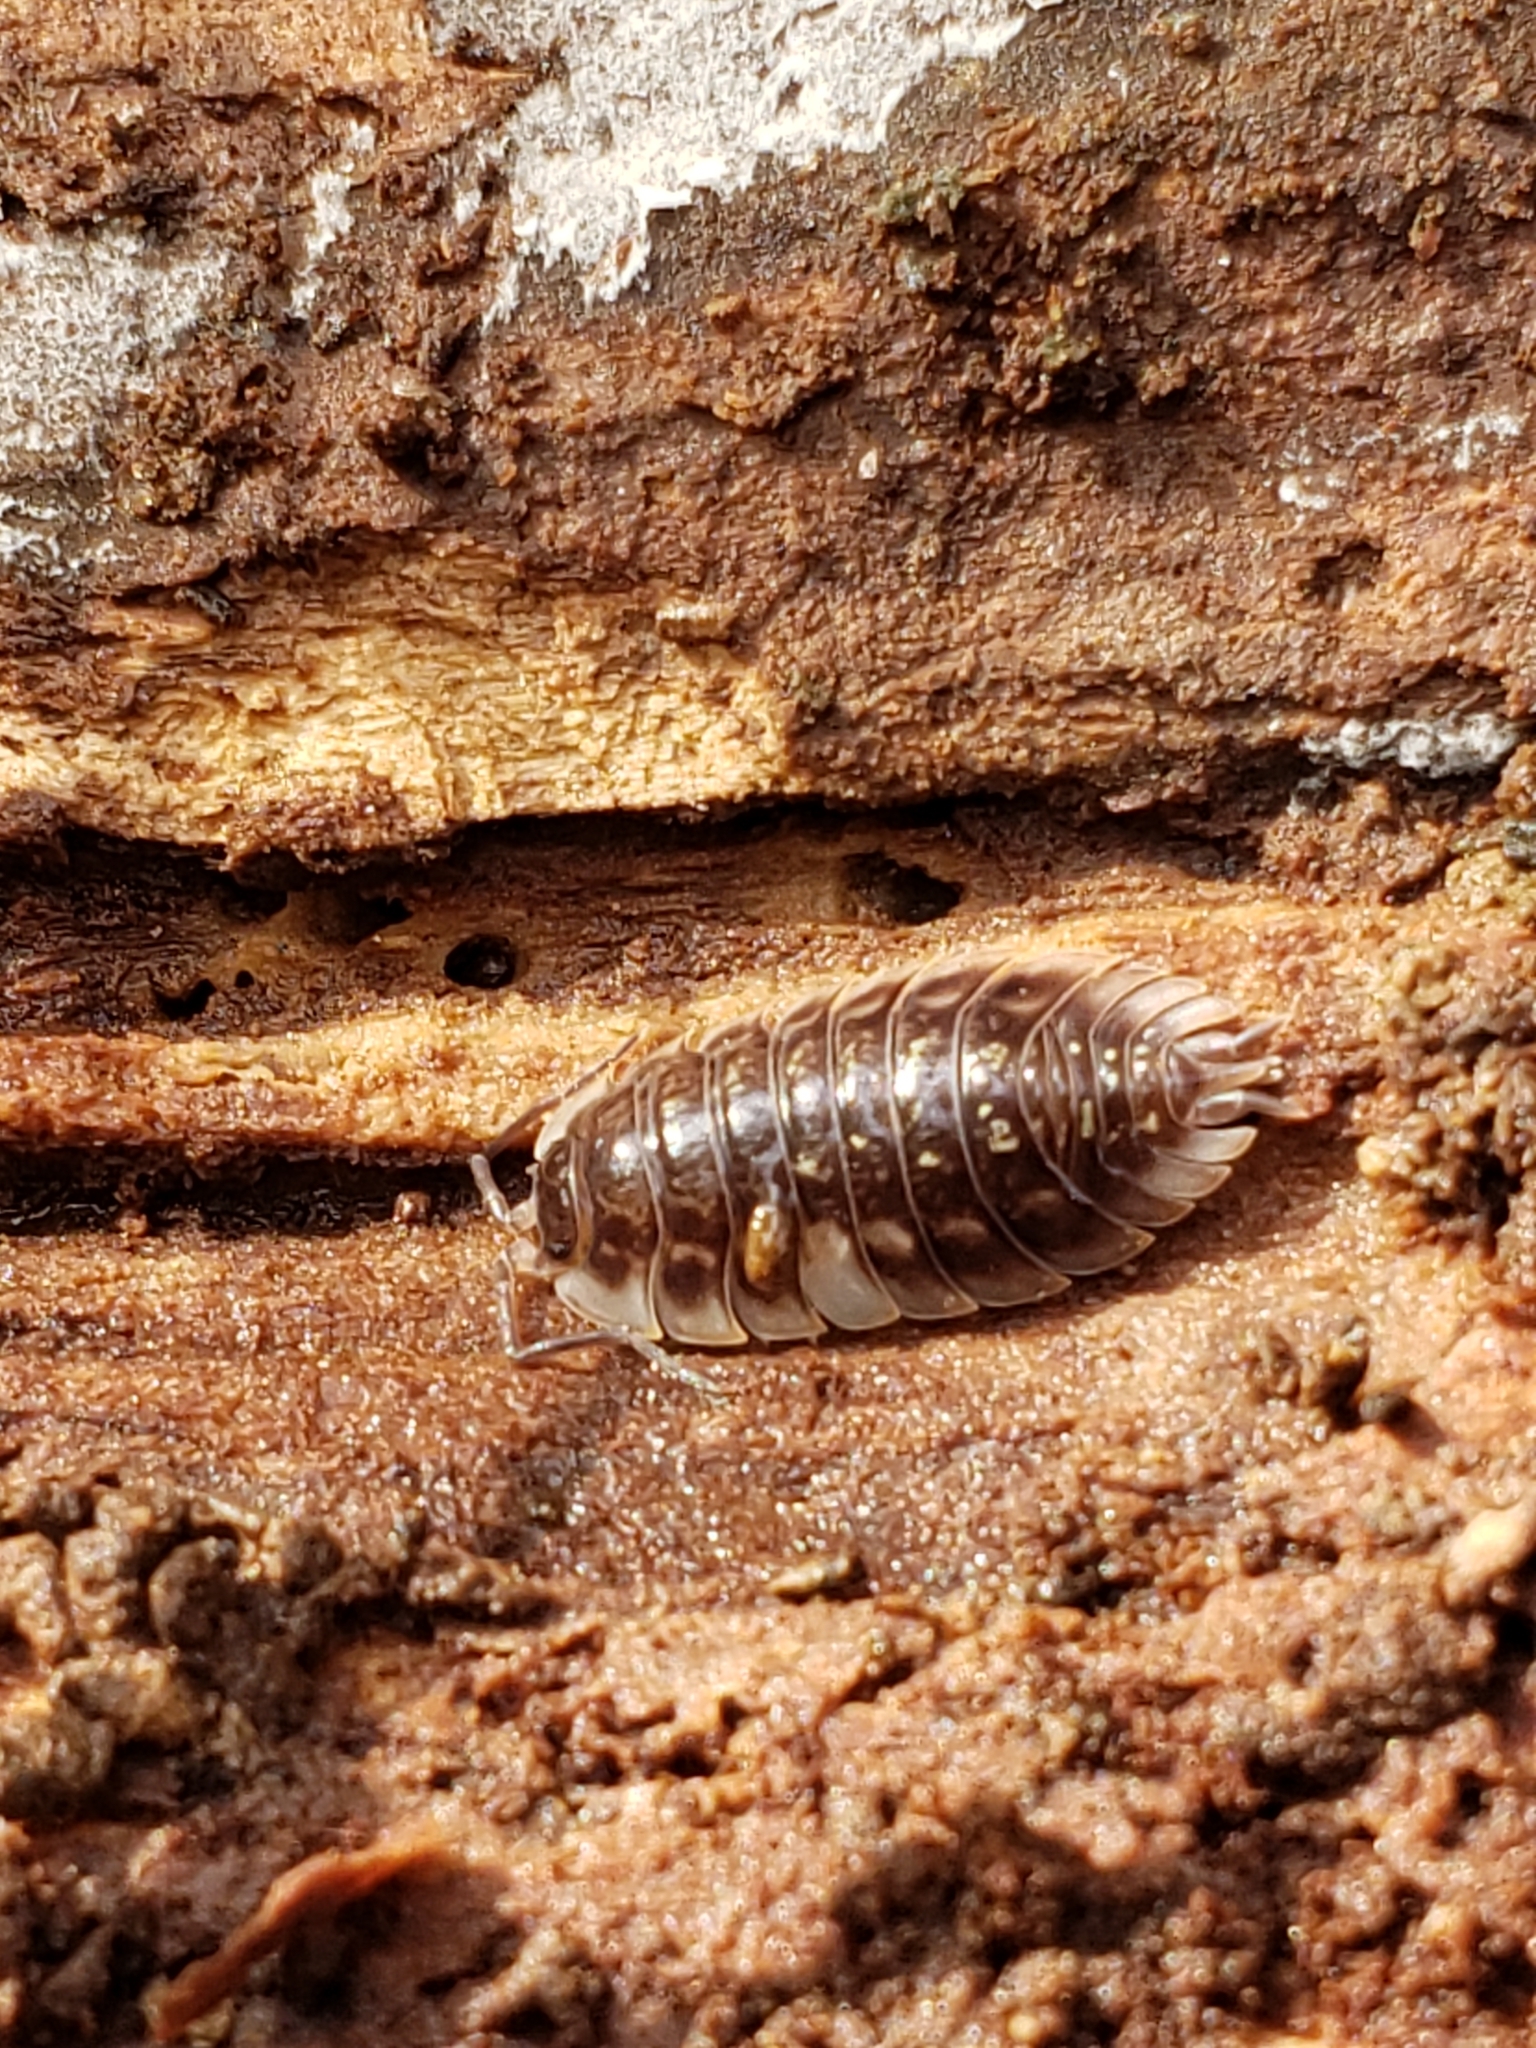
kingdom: Animalia
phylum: Arthropoda
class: Malacostraca
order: Isopoda
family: Oniscidae
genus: Oniscus
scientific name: Oniscus asellus
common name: Common shiny woodlouse
